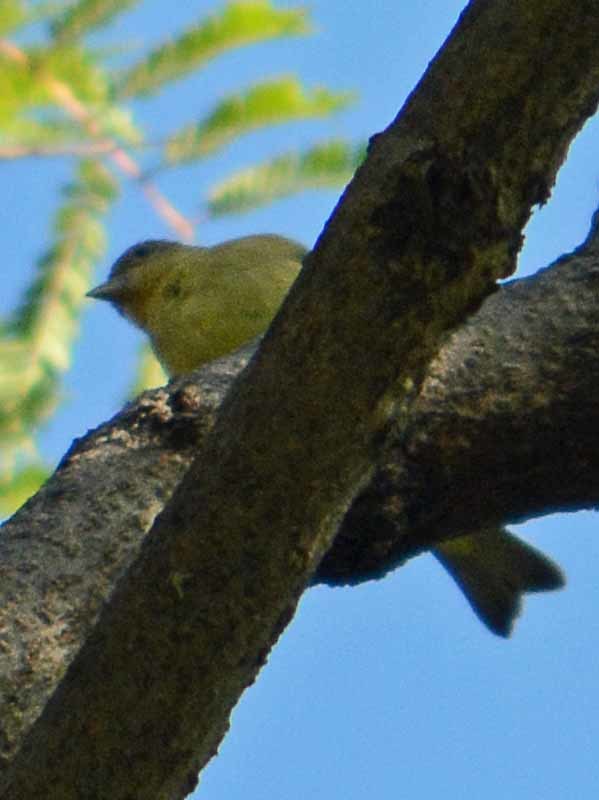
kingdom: Animalia
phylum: Chordata
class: Aves
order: Passeriformes
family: Fringillidae
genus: Spinus
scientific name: Spinus psaltria
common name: Lesser goldfinch
